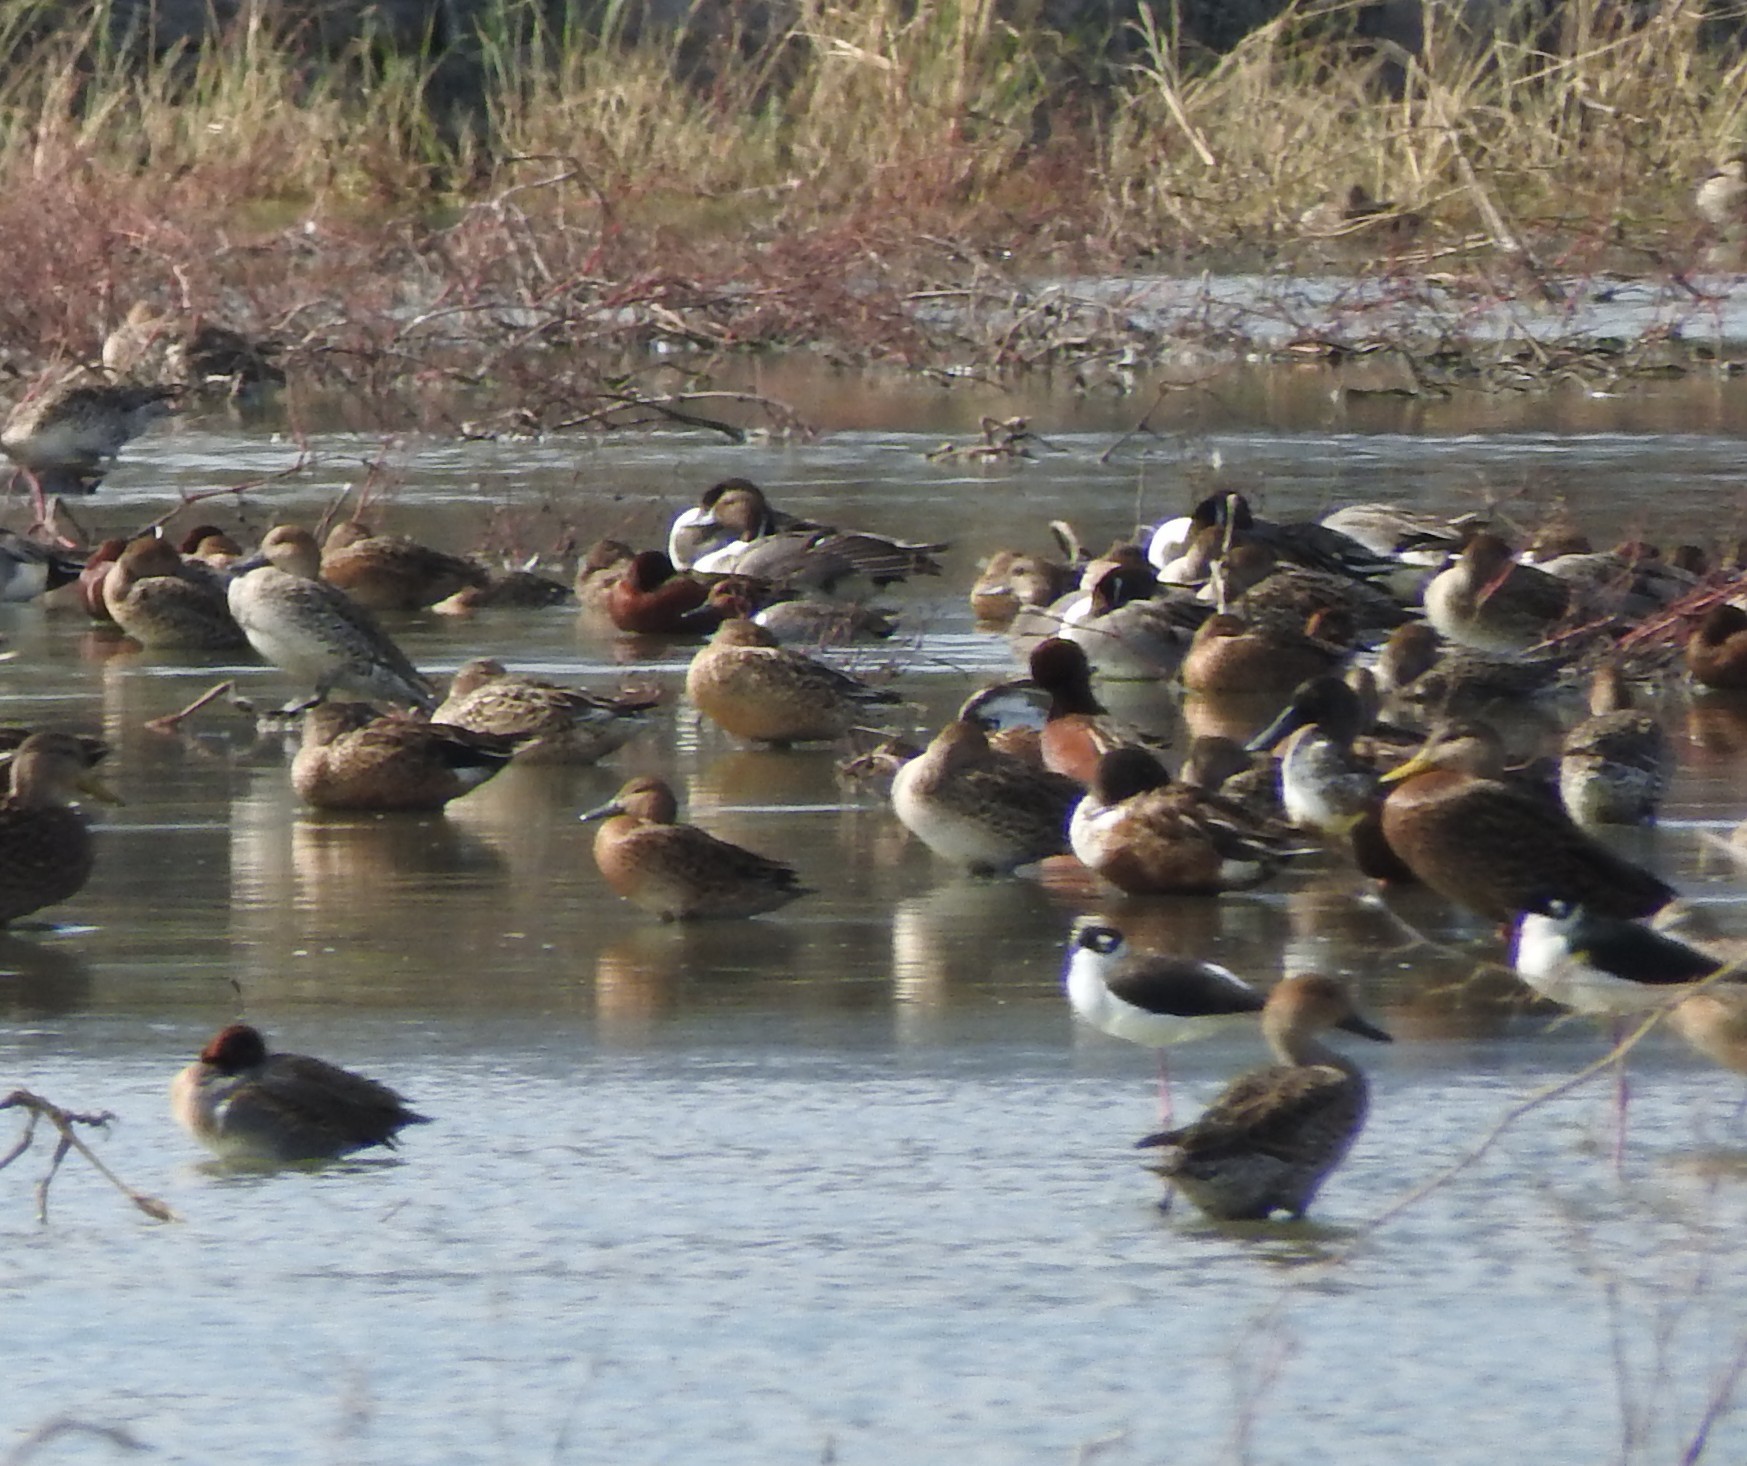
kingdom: Animalia
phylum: Chordata
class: Aves
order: Anseriformes
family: Anatidae
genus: Anas
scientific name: Anas acuta
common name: Northern pintail
